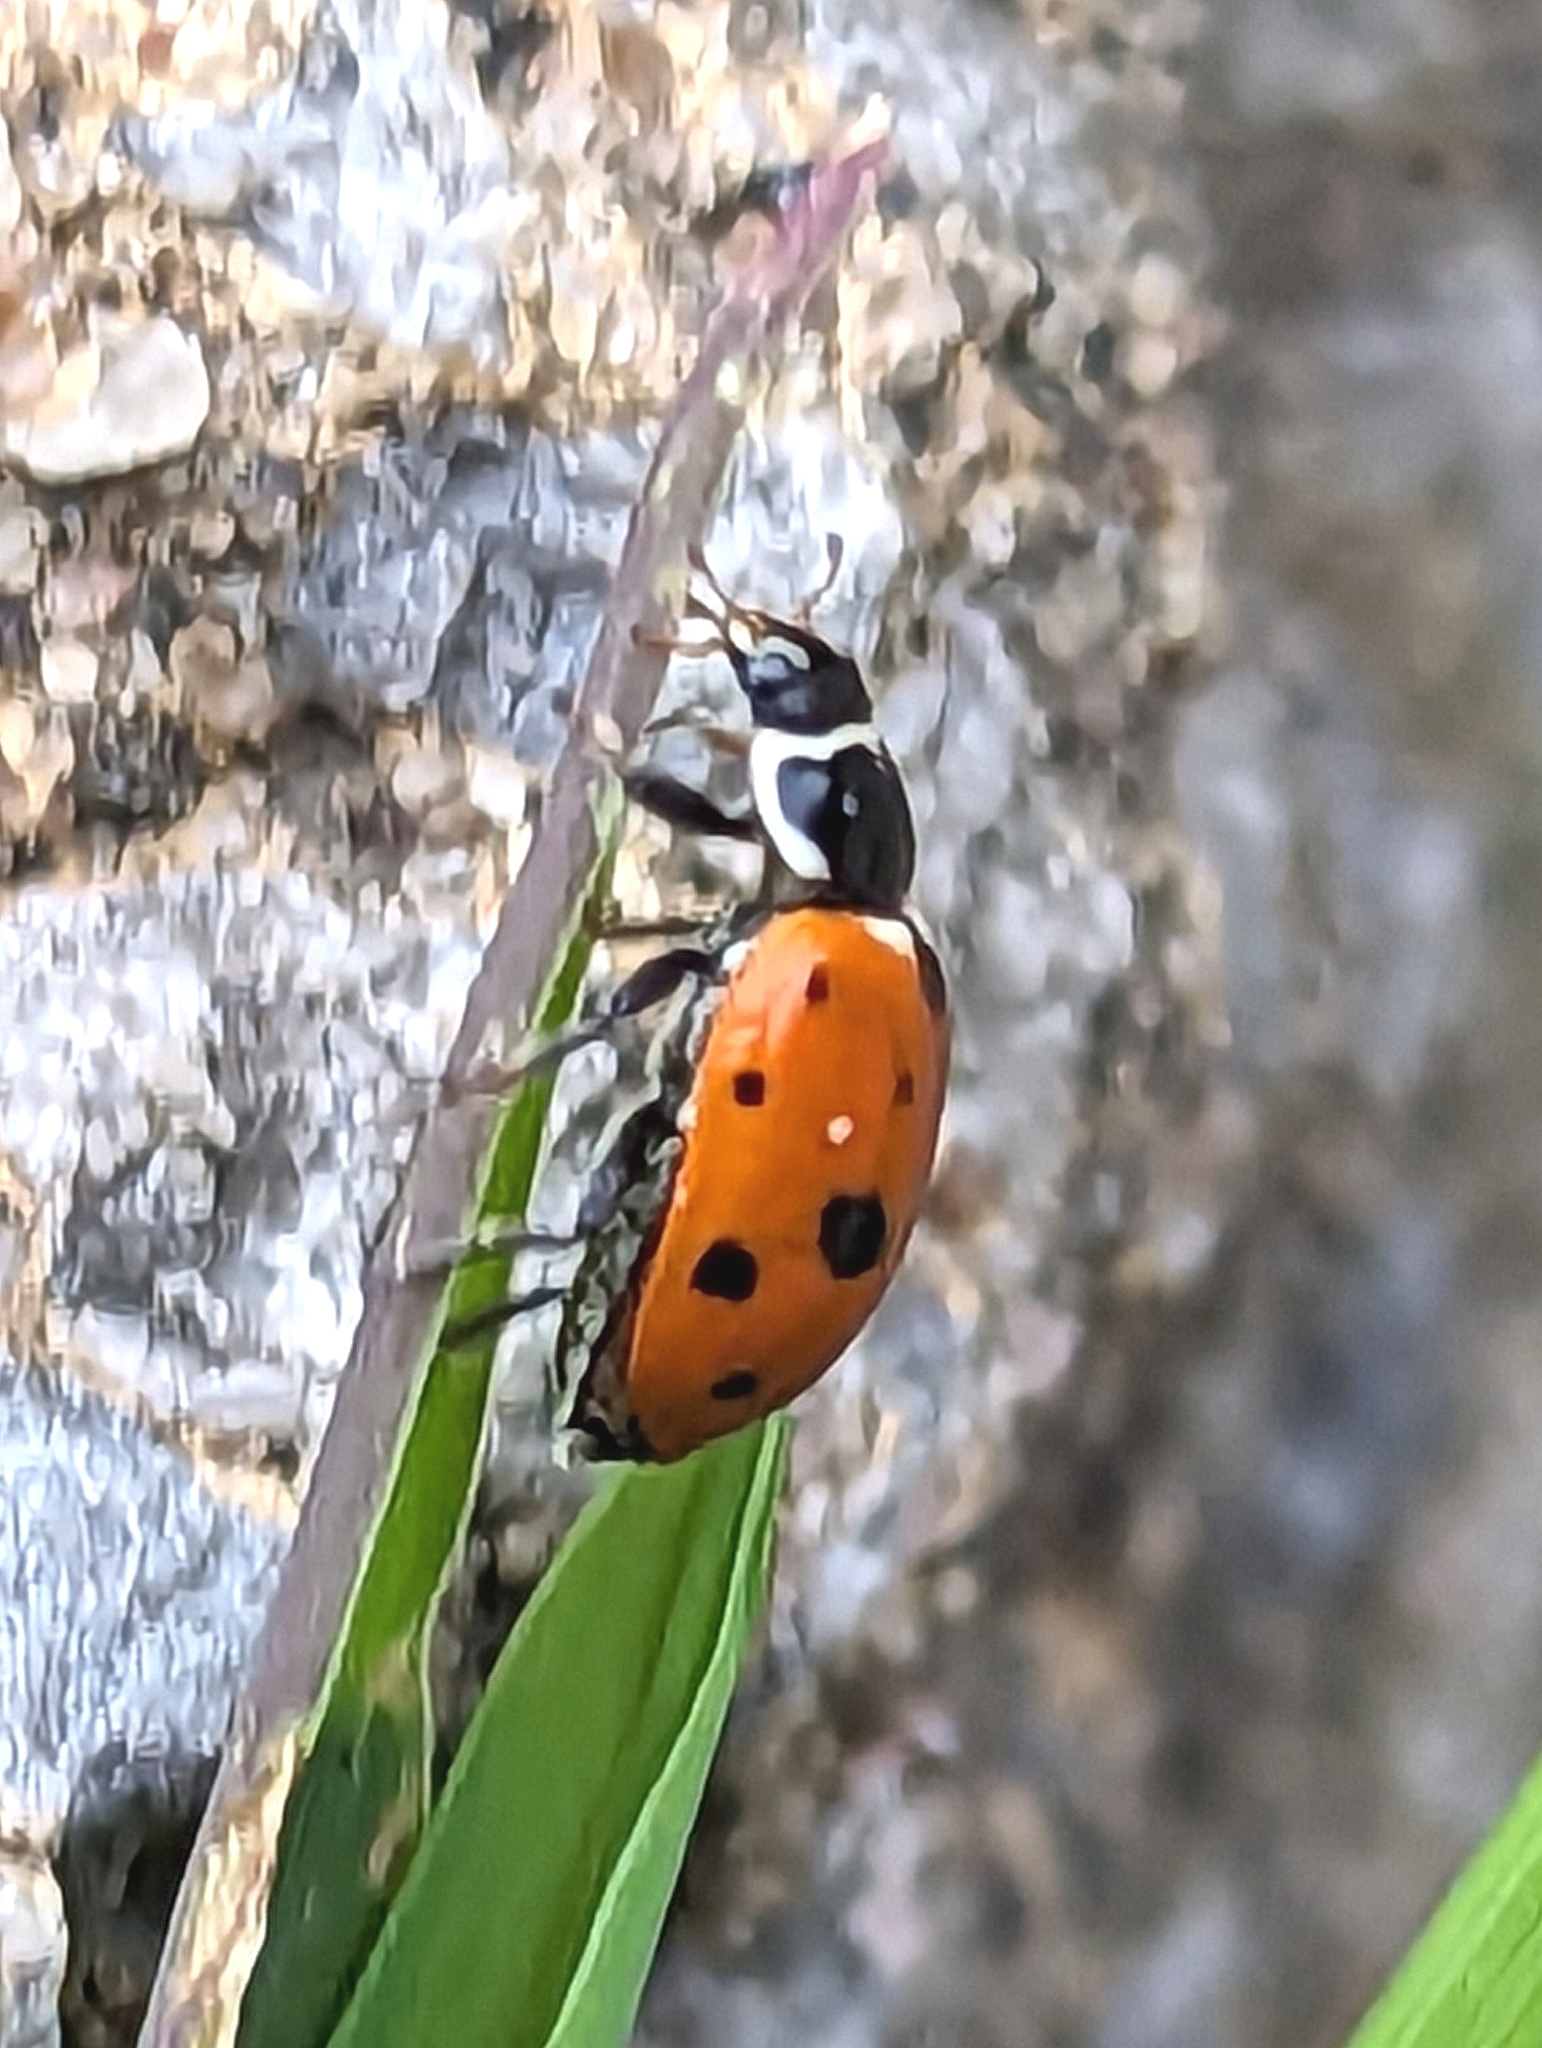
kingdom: Animalia
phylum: Arthropoda
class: Insecta
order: Coleoptera
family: Coccinellidae
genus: Hippodamia
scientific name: Hippodamia variegata
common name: Ladybird beetle
